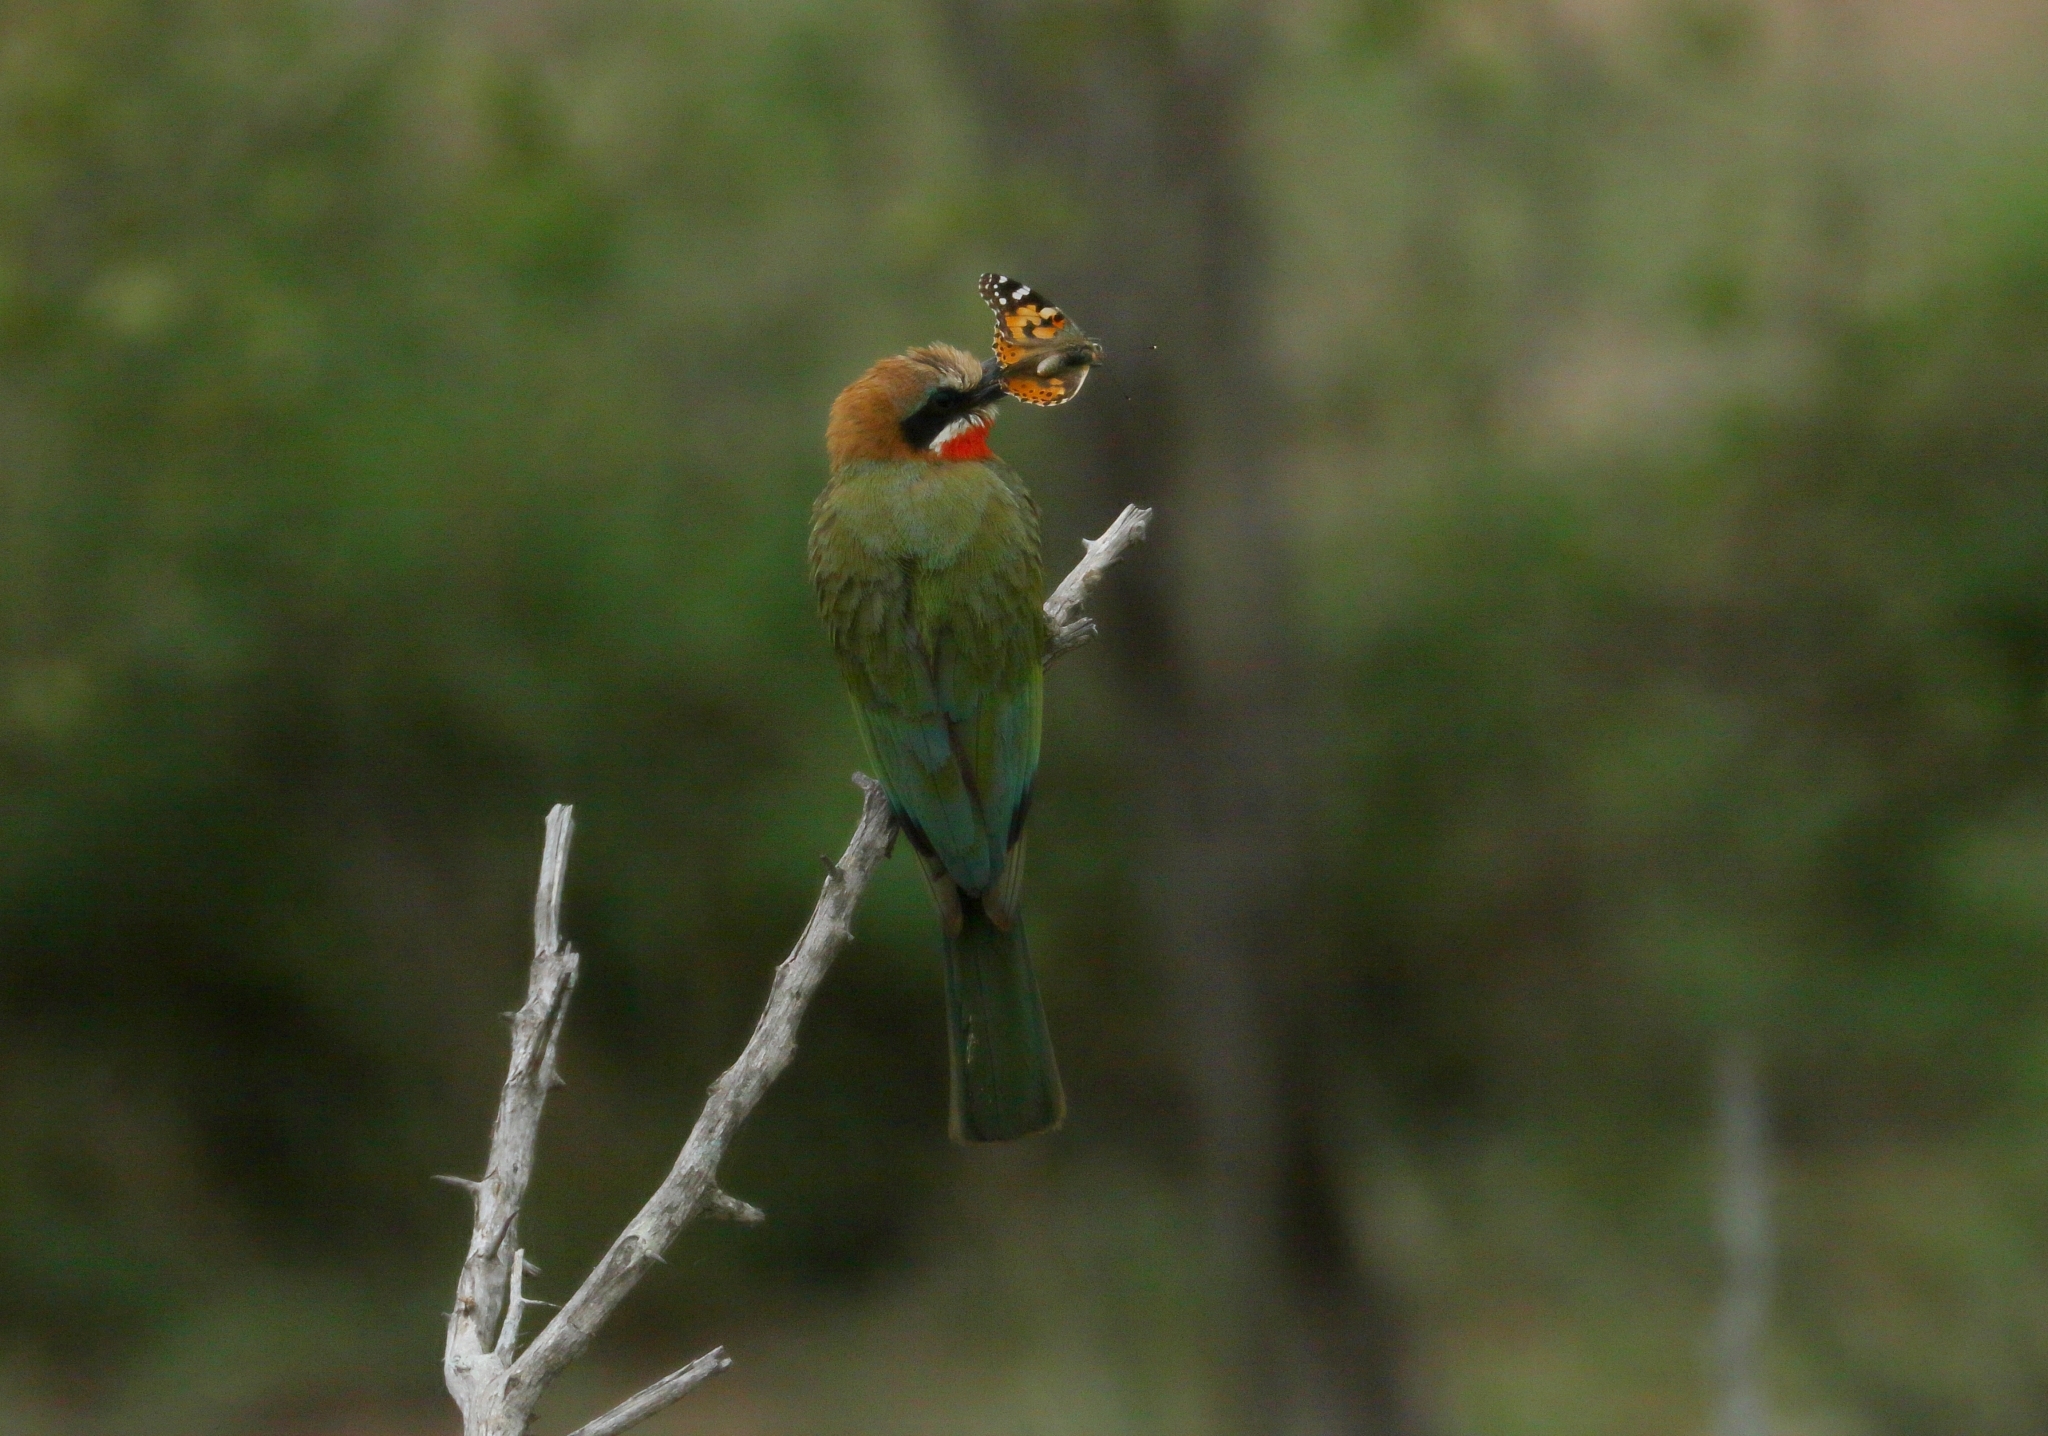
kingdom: Animalia
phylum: Chordata
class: Aves
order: Coraciiformes
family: Meropidae
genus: Merops
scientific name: Merops bullockoides
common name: White-fronted bee-eater
